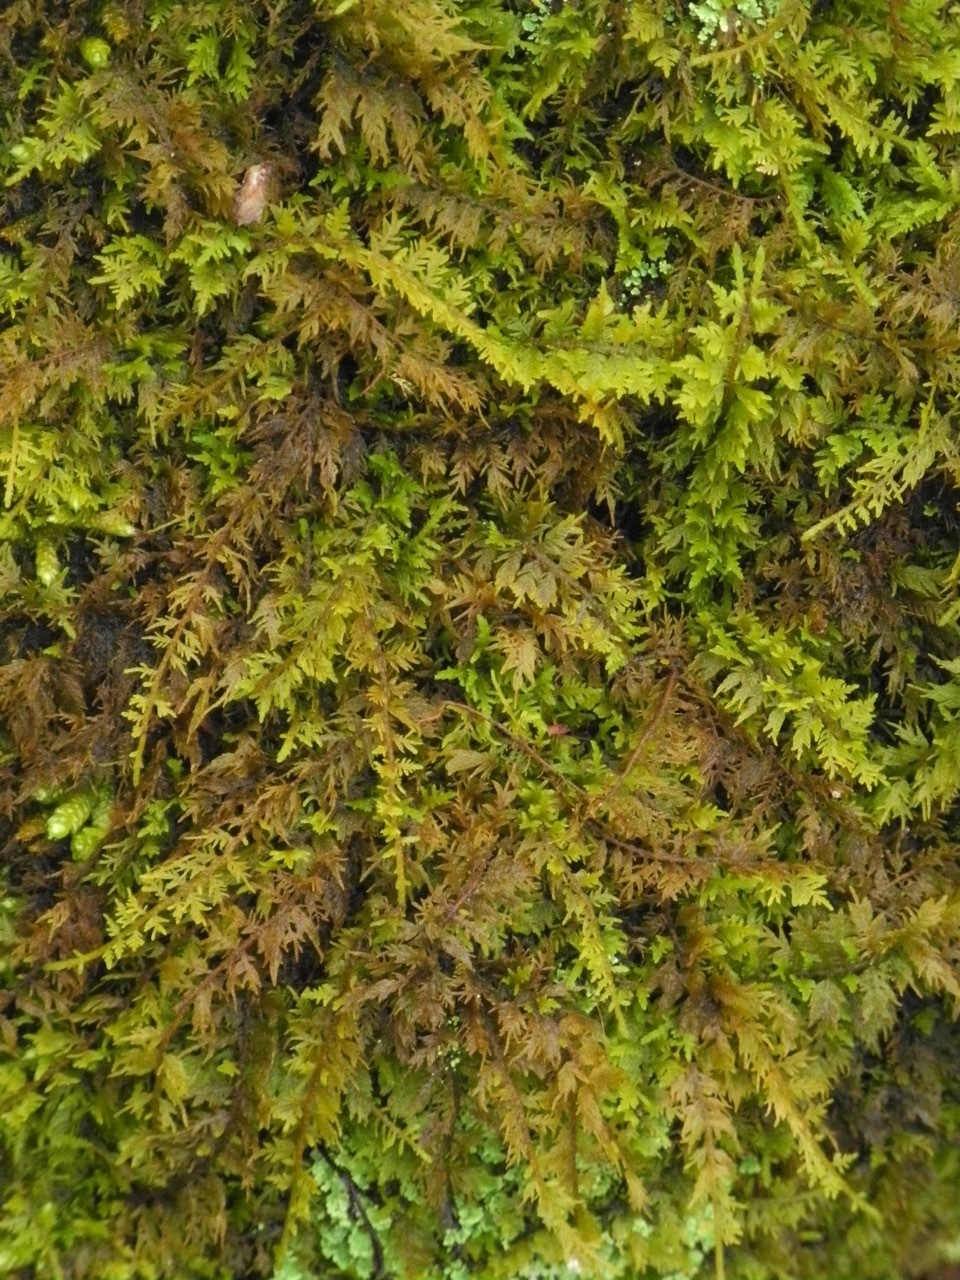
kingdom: Plantae
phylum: Bryophyta
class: Bryopsida
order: Hypnales
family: Thuidiaceae
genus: Thuidium
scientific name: Thuidium delicatulum
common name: Delicate fern moss
